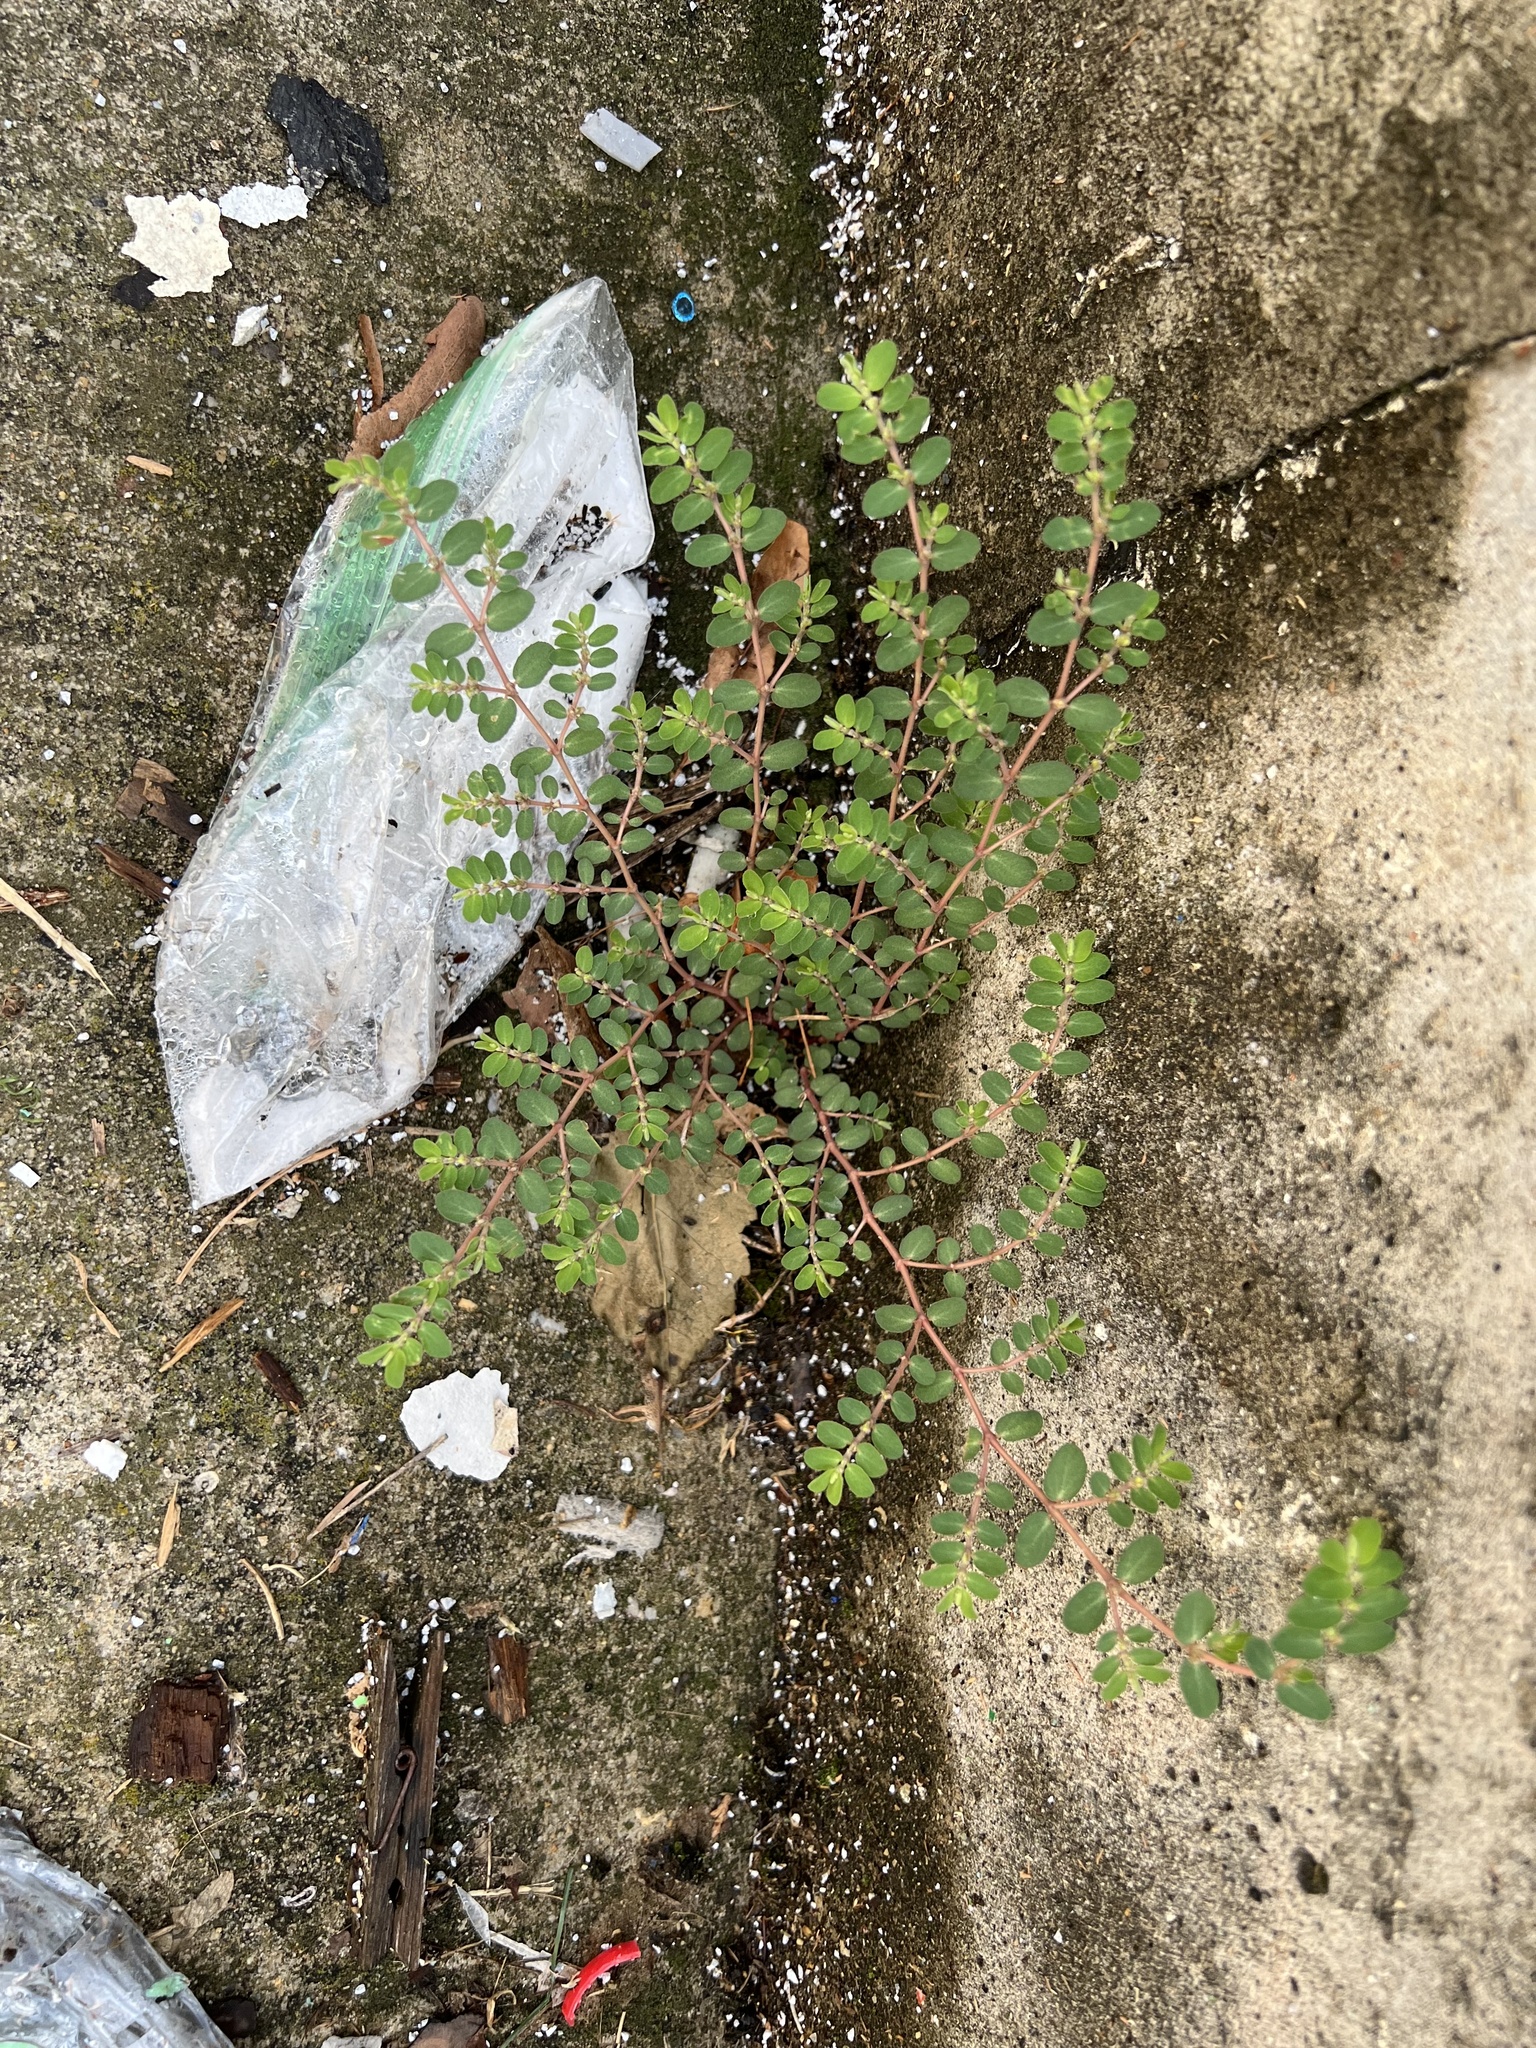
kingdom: Plantae
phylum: Tracheophyta
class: Magnoliopsida
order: Malpighiales
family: Euphorbiaceae
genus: Euphorbia
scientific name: Euphorbia prostrata
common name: Prostrate sandmat
